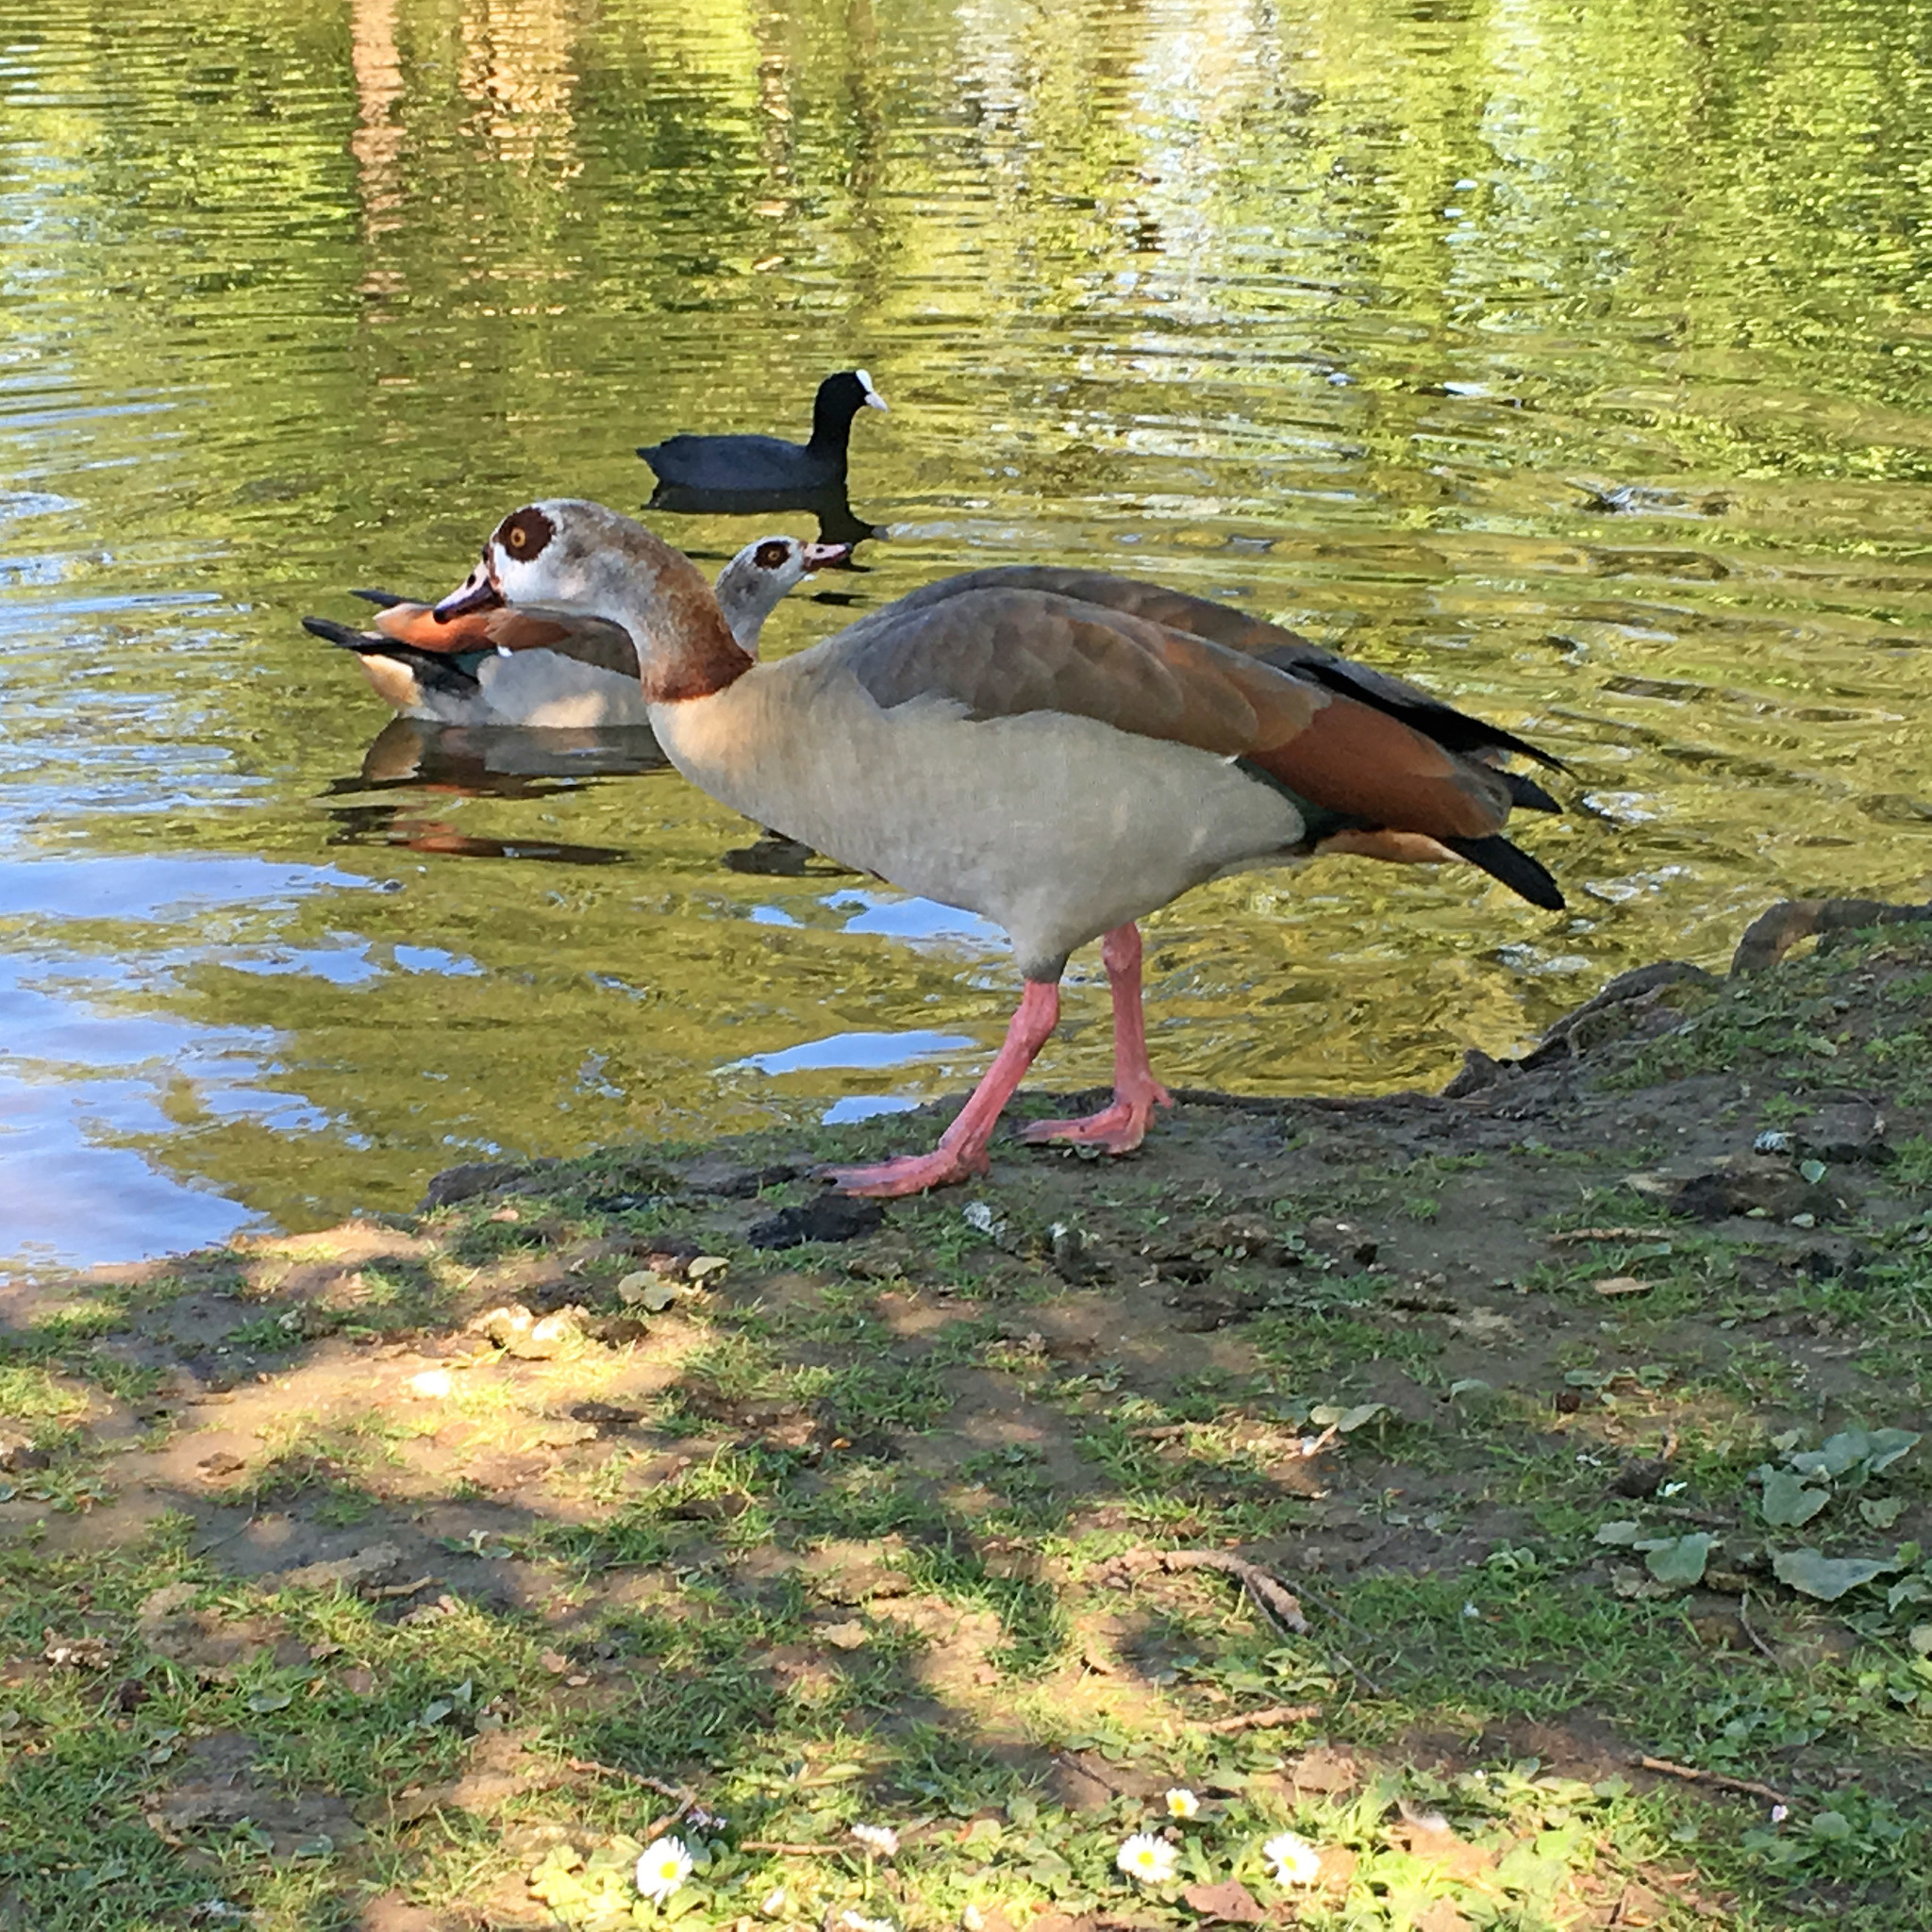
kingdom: Animalia
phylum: Chordata
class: Aves
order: Anseriformes
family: Anatidae
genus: Alopochen
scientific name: Alopochen aegyptiaca
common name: Egyptian goose
